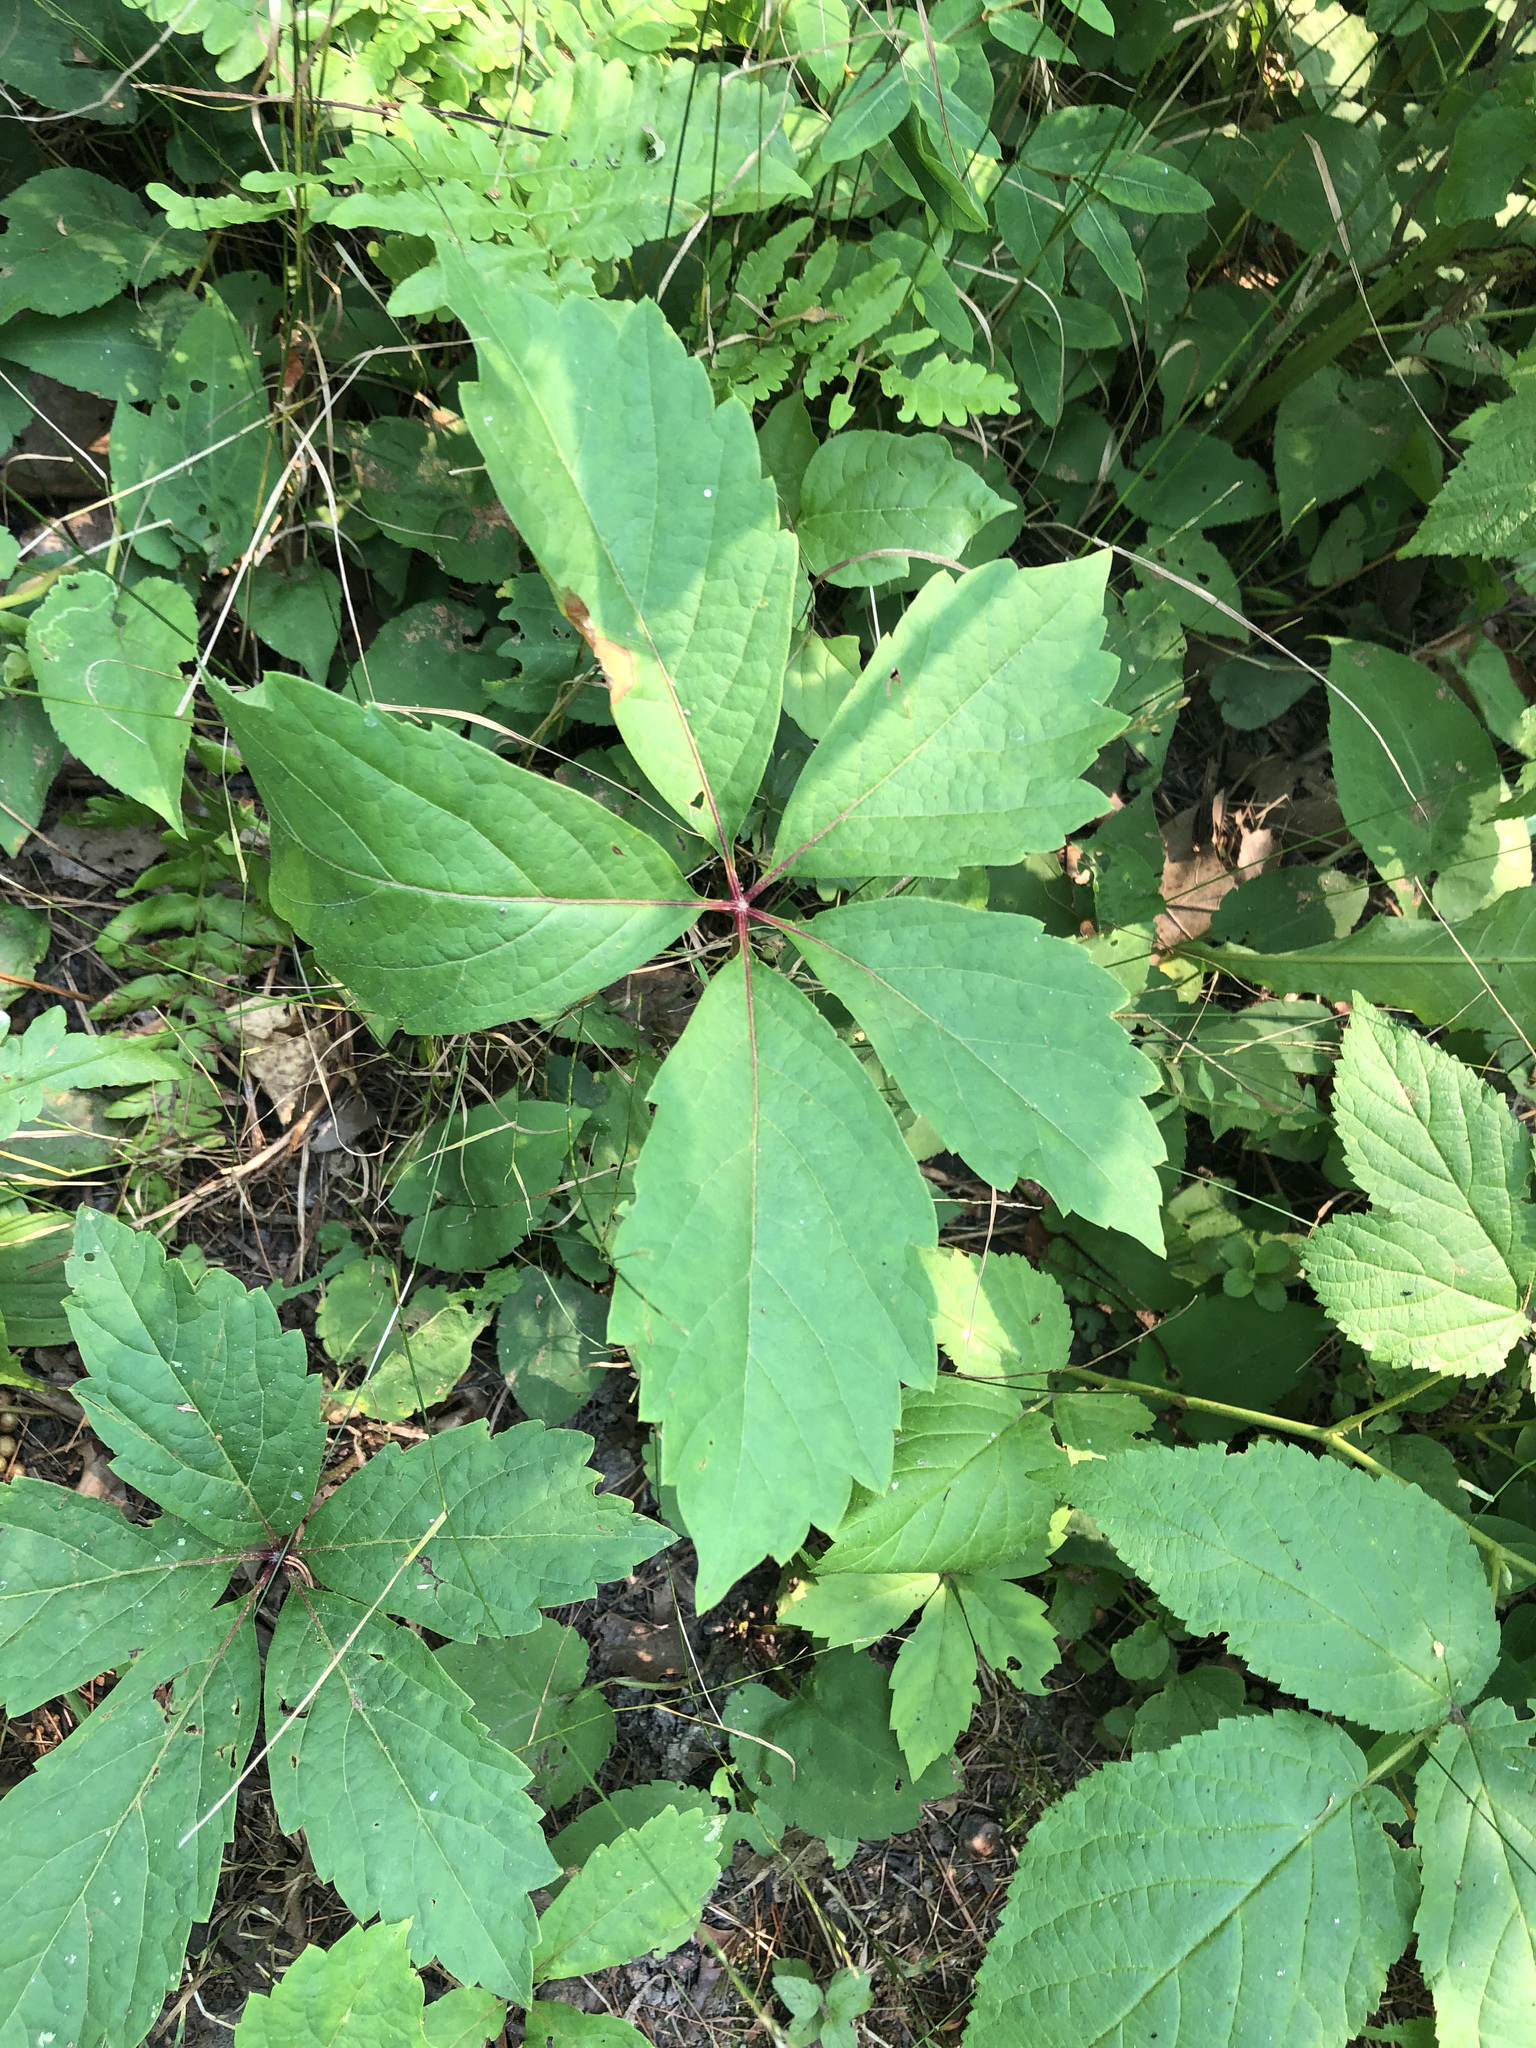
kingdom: Plantae
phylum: Tracheophyta
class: Magnoliopsida
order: Vitales
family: Vitaceae
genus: Parthenocissus
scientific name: Parthenocissus inserta
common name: False virginia-creeper
